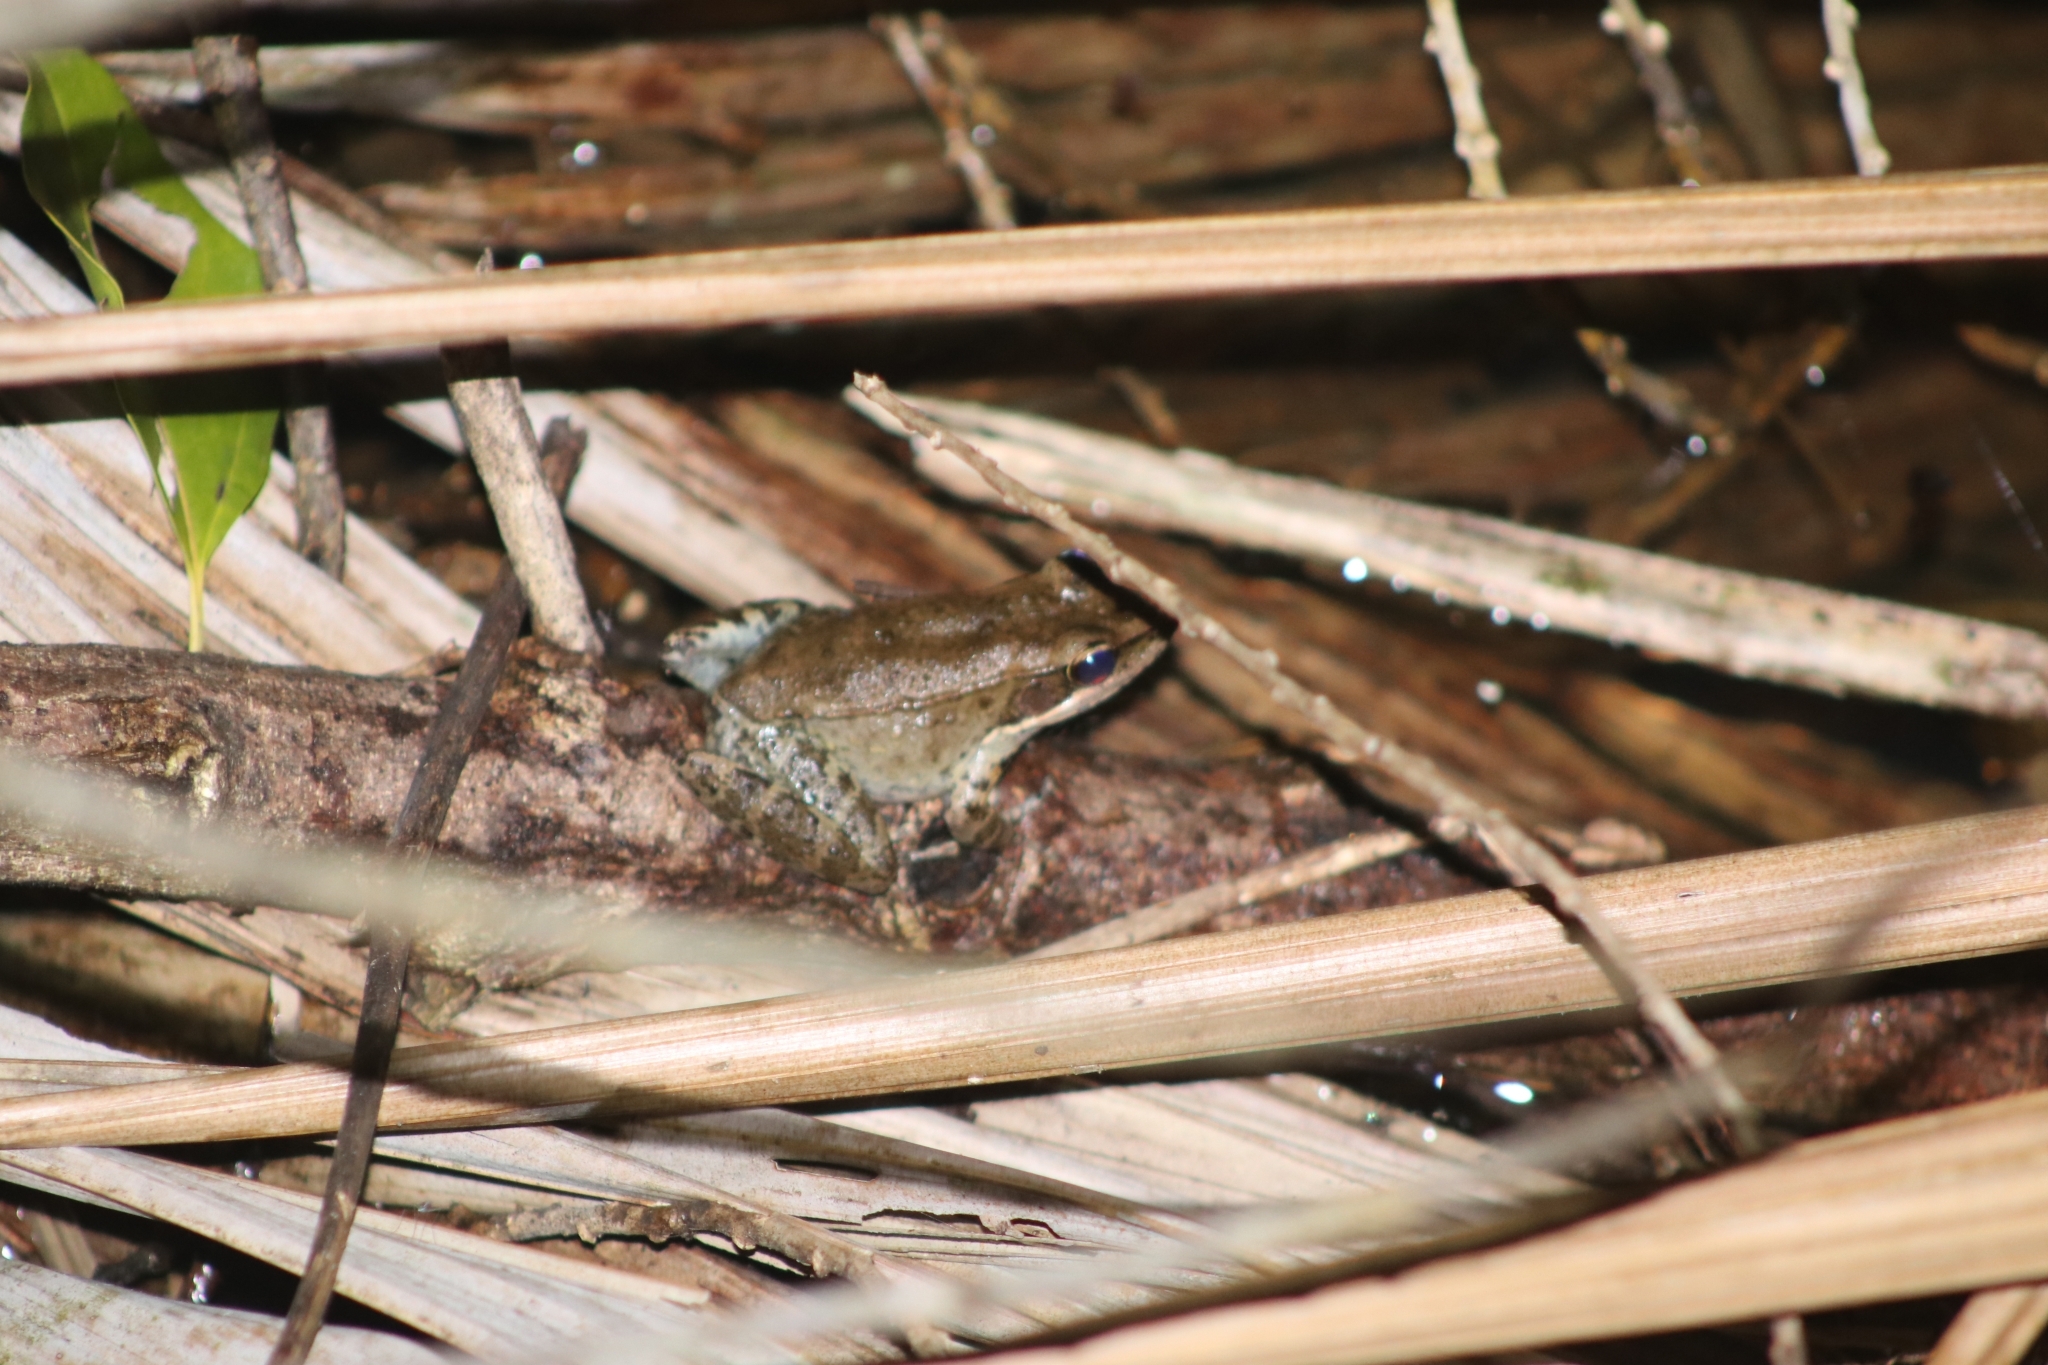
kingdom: Animalia
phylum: Chordata
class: Amphibia
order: Anura
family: Ranidae
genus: Papurana
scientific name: Papurana daemeli
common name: Arhem rana
